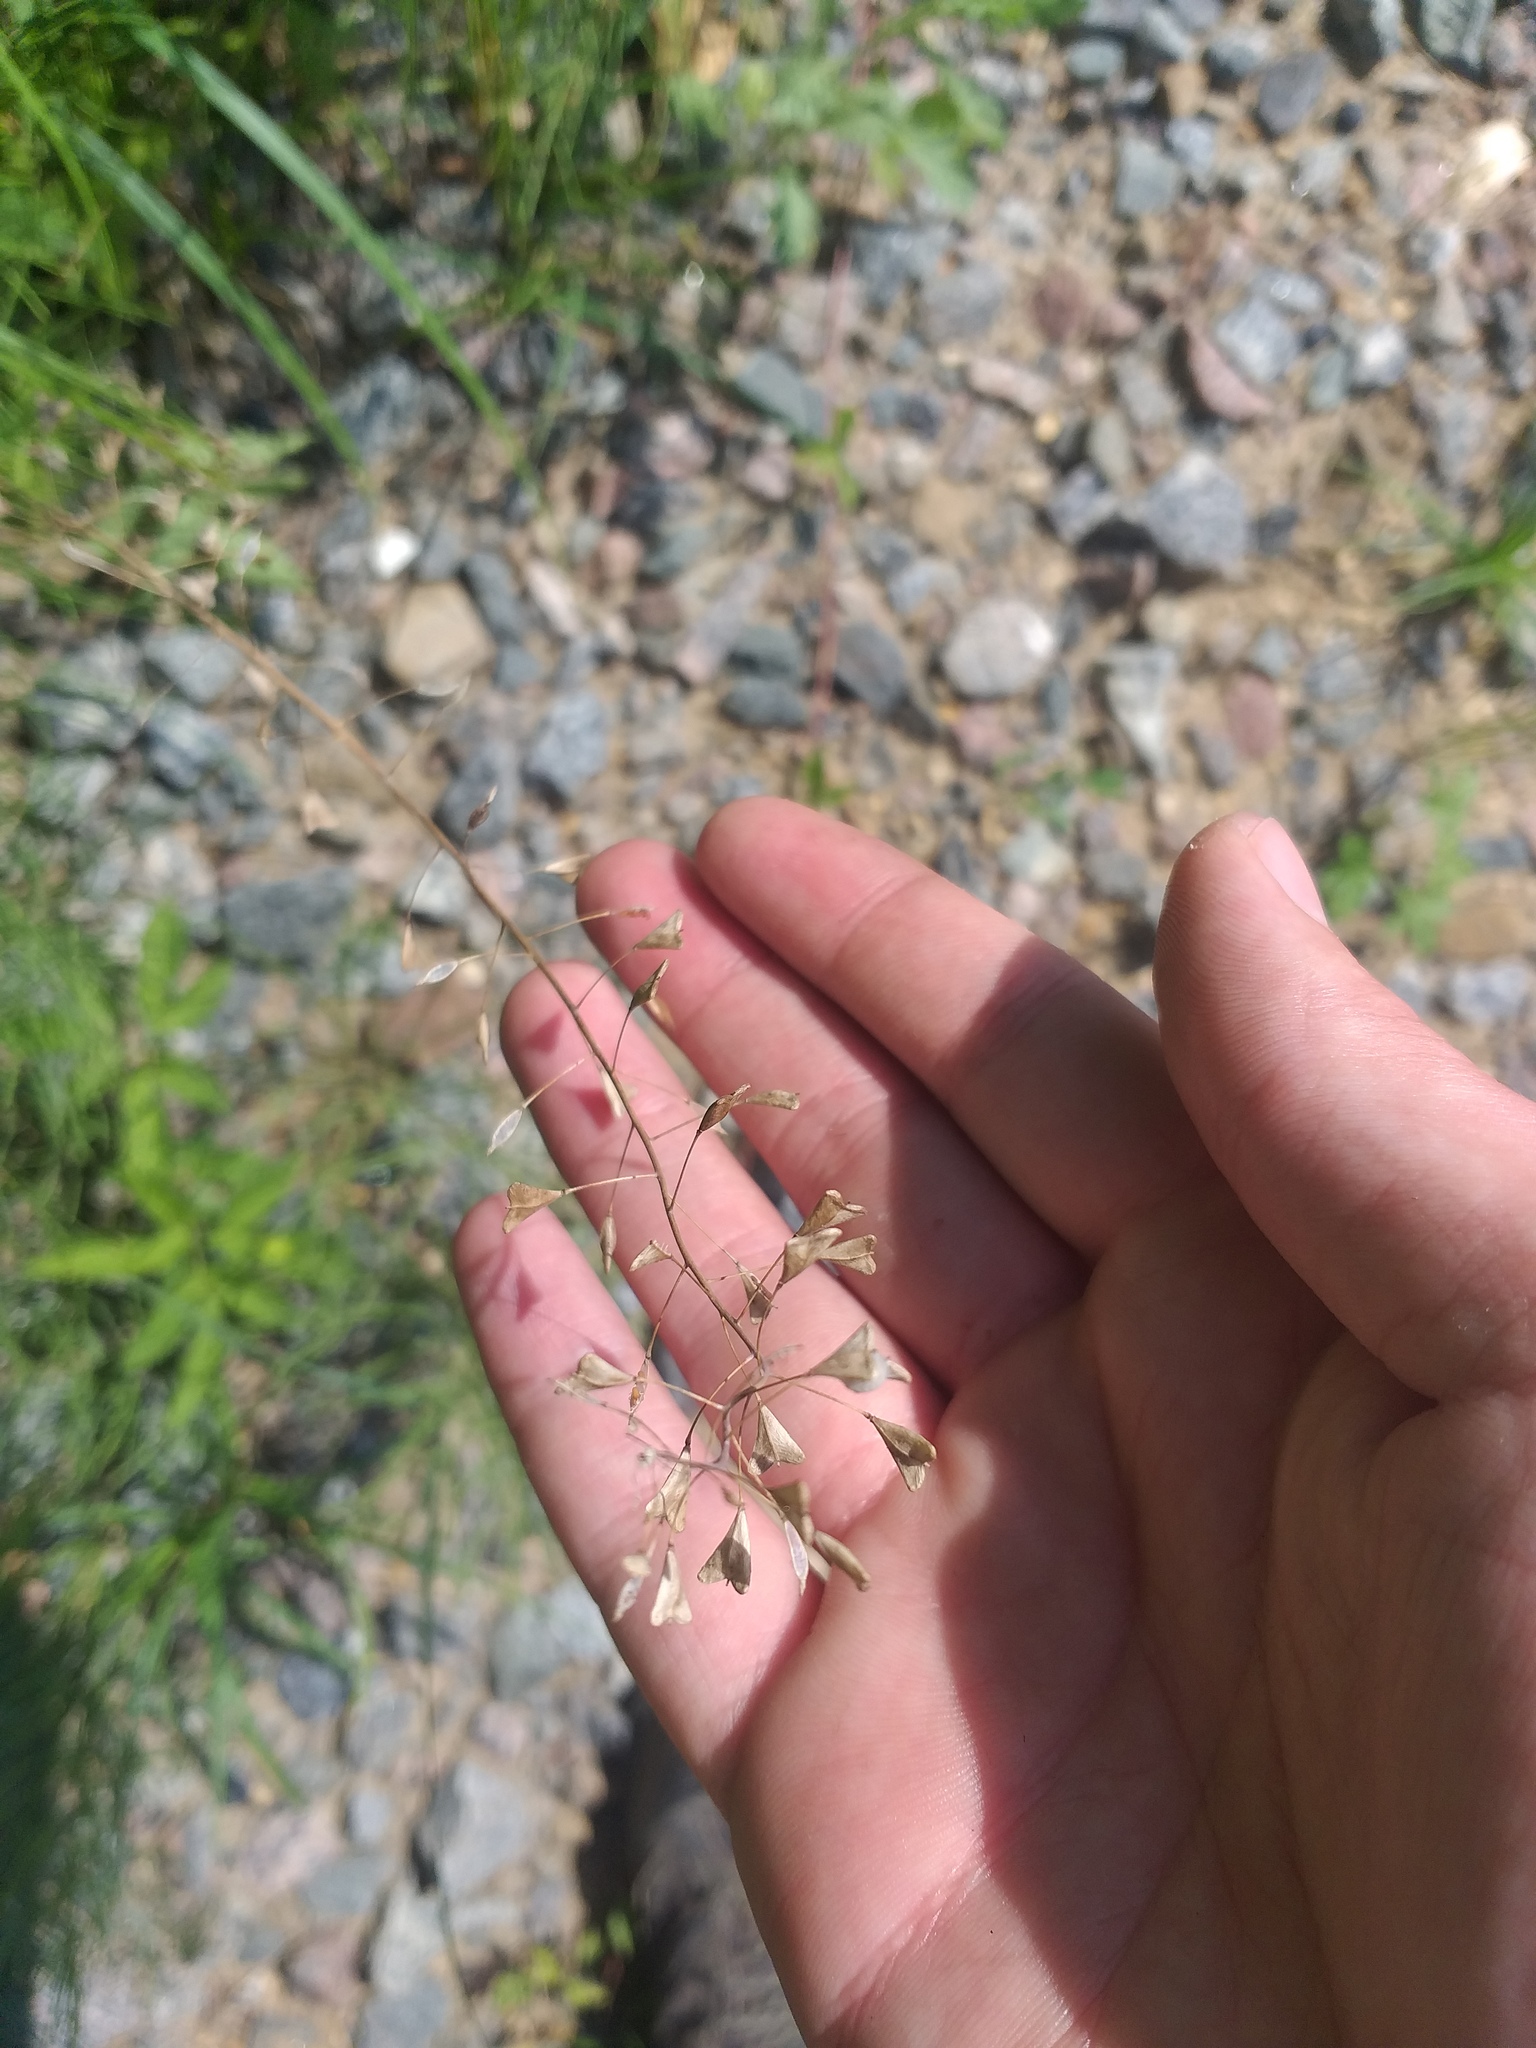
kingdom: Plantae
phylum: Tracheophyta
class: Magnoliopsida
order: Brassicales
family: Brassicaceae
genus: Capsella
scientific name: Capsella bursa-pastoris
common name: Shepherd's purse
